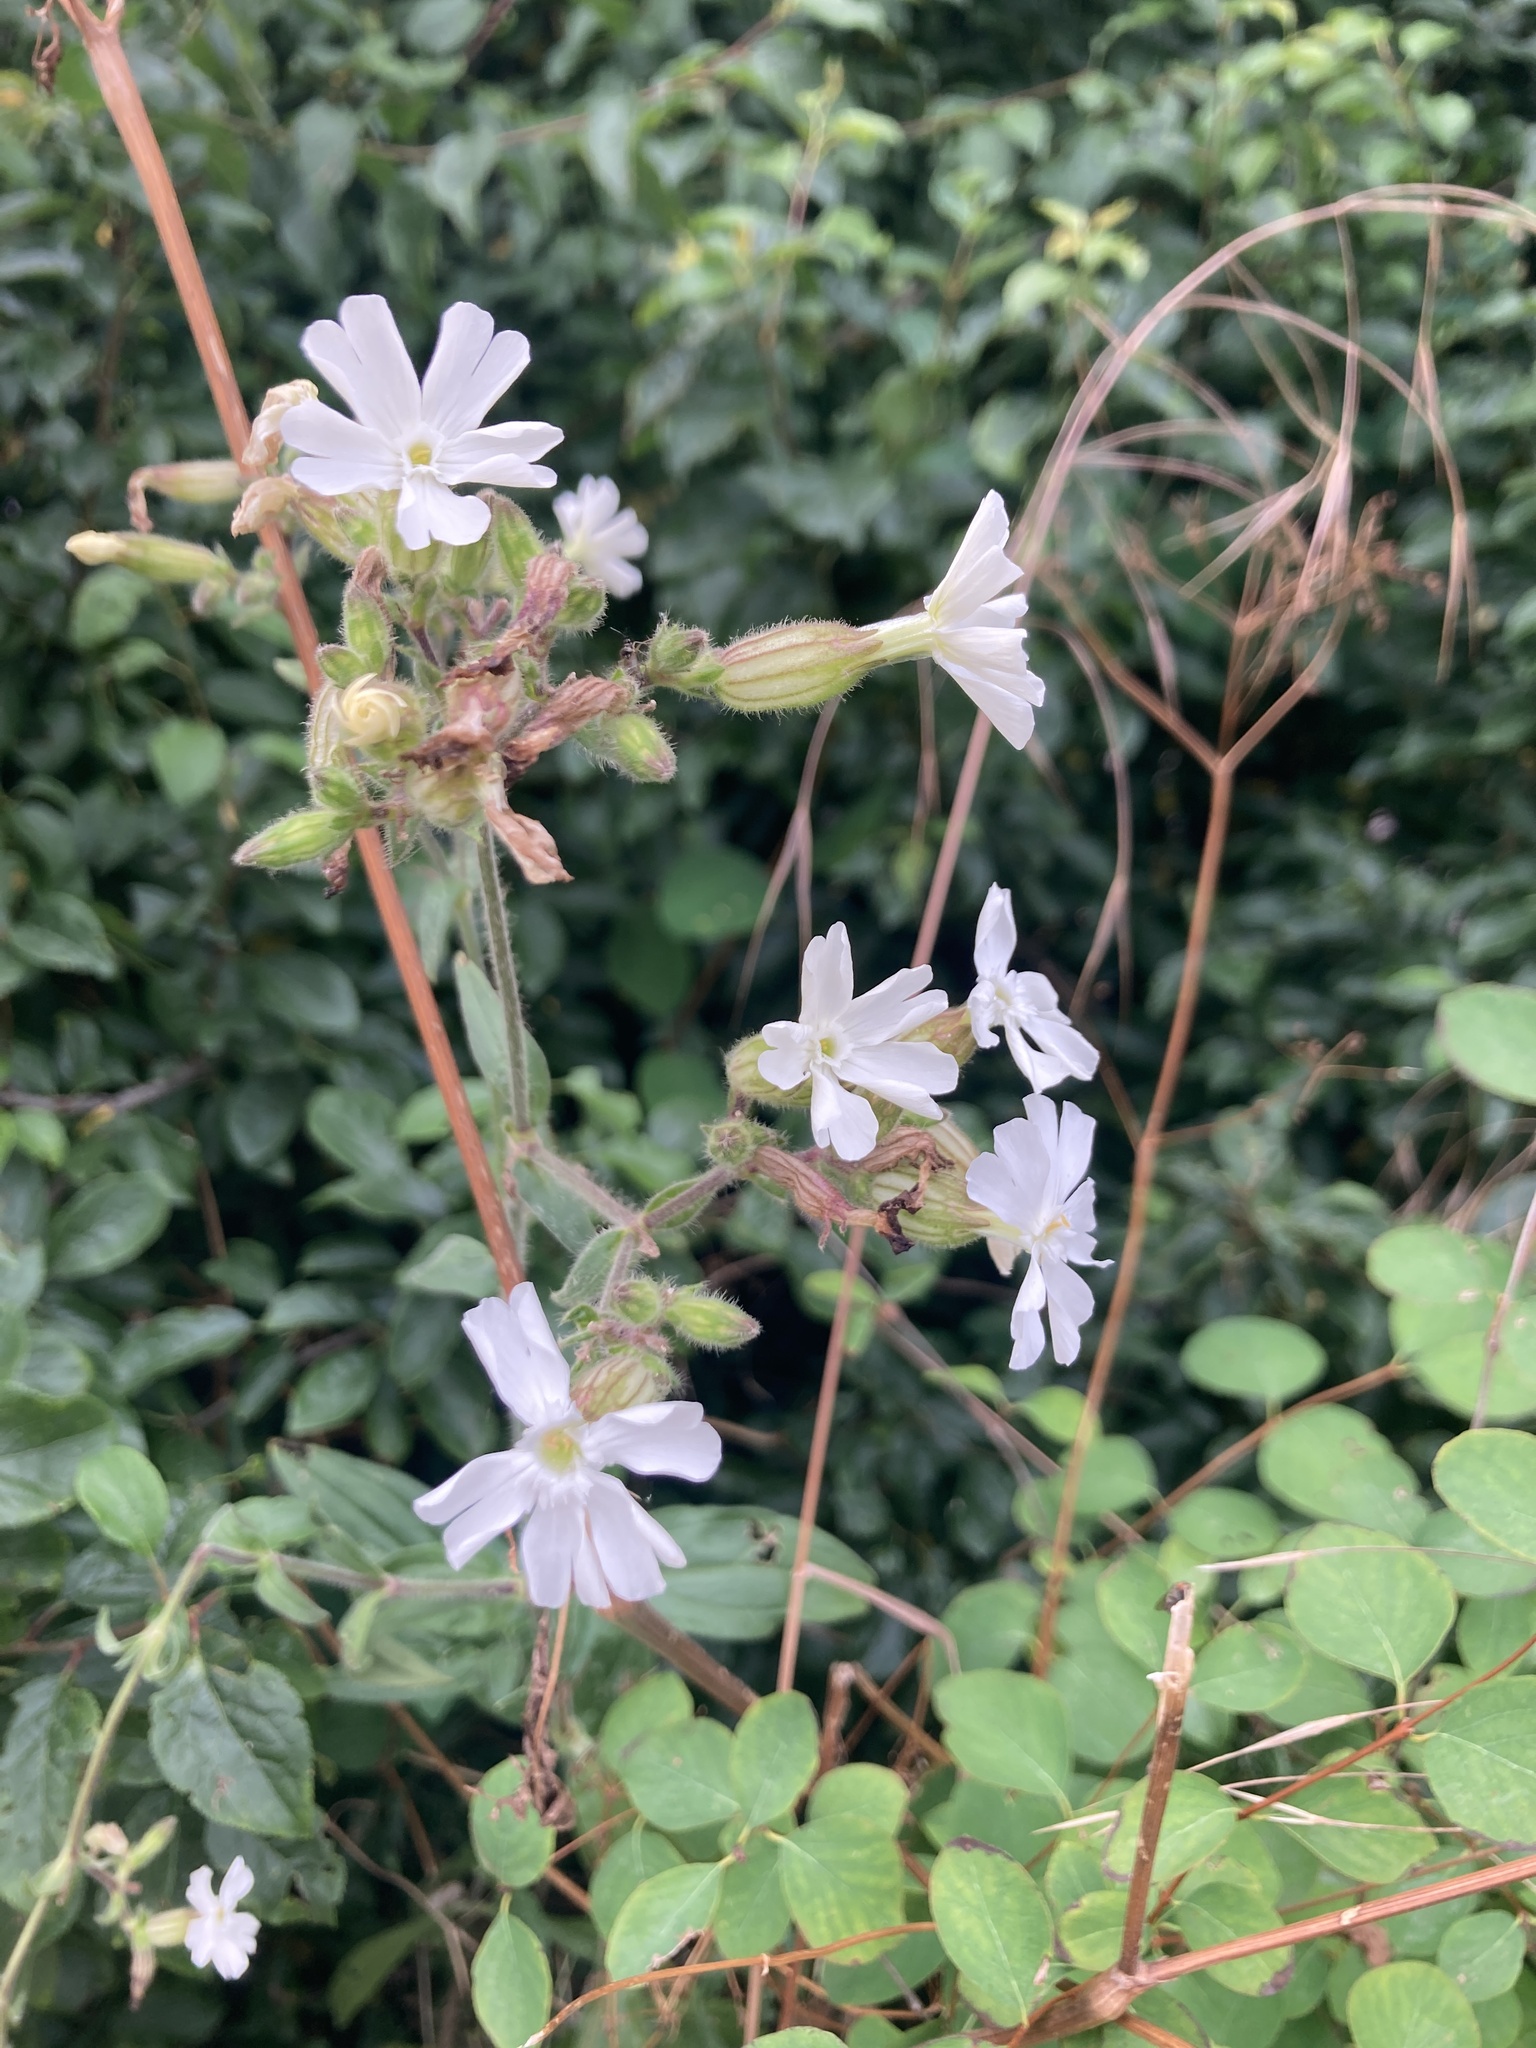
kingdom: Plantae
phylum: Tracheophyta
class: Magnoliopsida
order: Caryophyllales
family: Caryophyllaceae
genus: Silene
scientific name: Silene latifolia
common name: White campion
